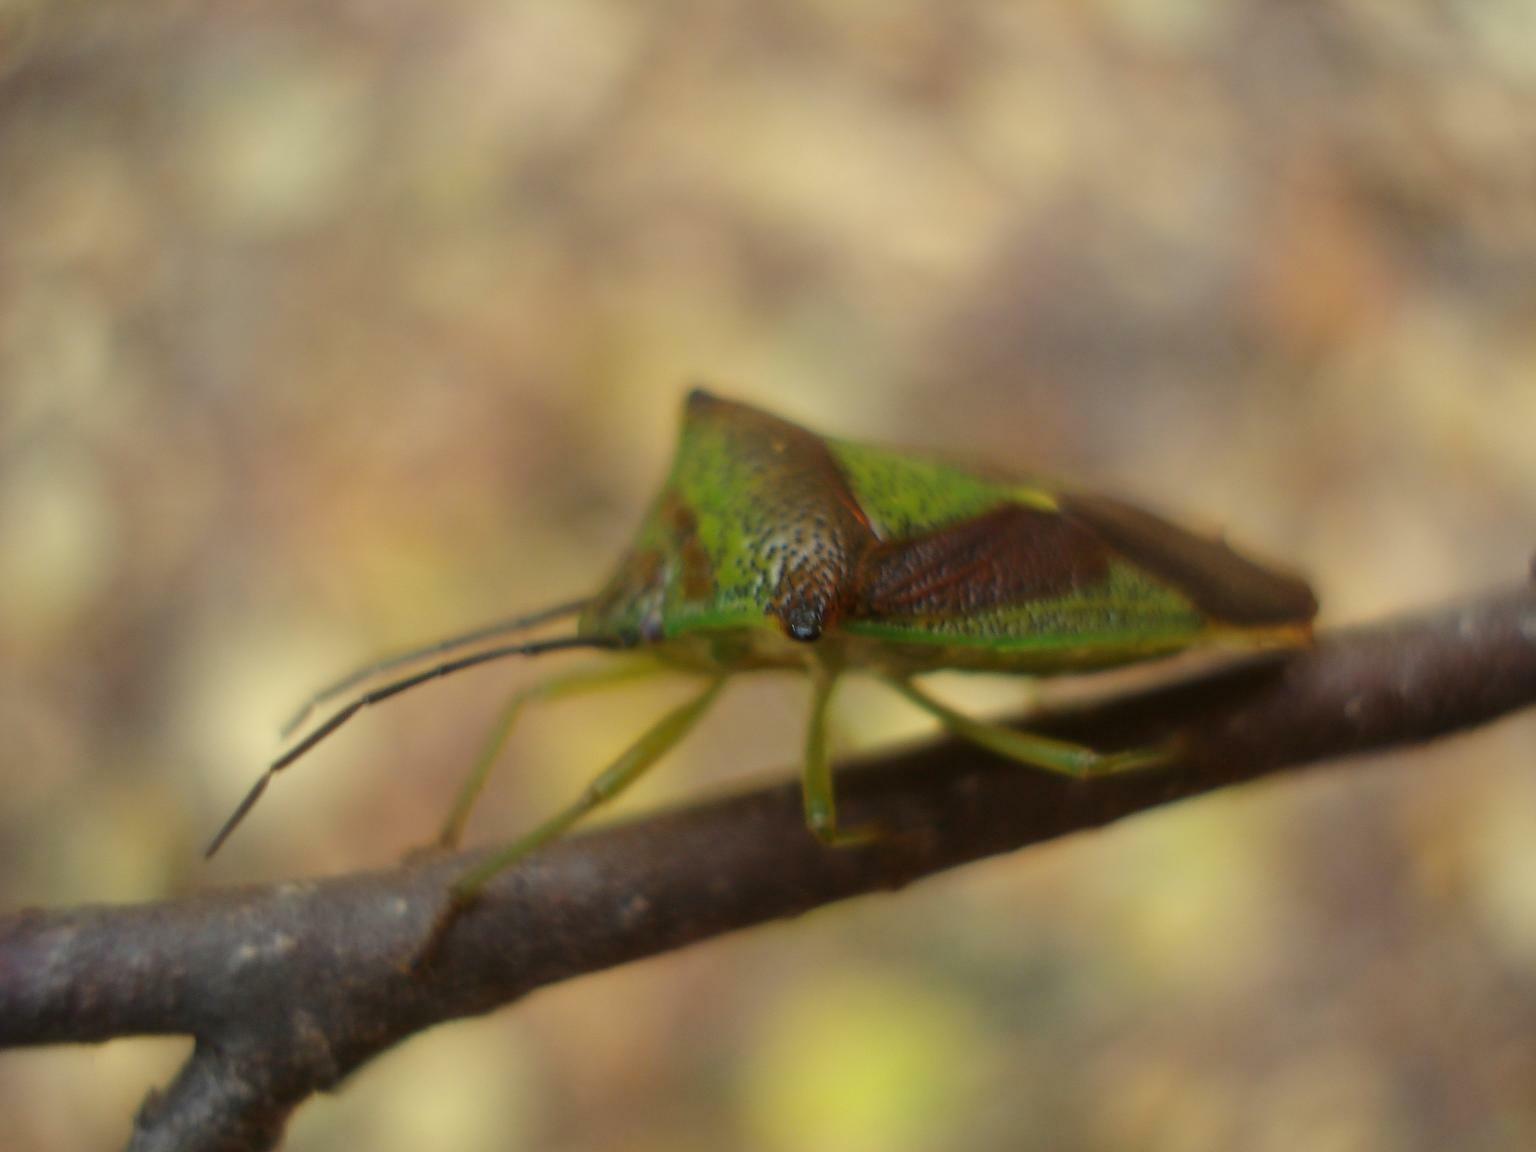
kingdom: Animalia
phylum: Arthropoda
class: Insecta
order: Hemiptera
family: Acanthosomatidae
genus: Acanthosoma
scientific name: Acanthosoma haemorrhoidale
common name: Hawthorn shieldbug
